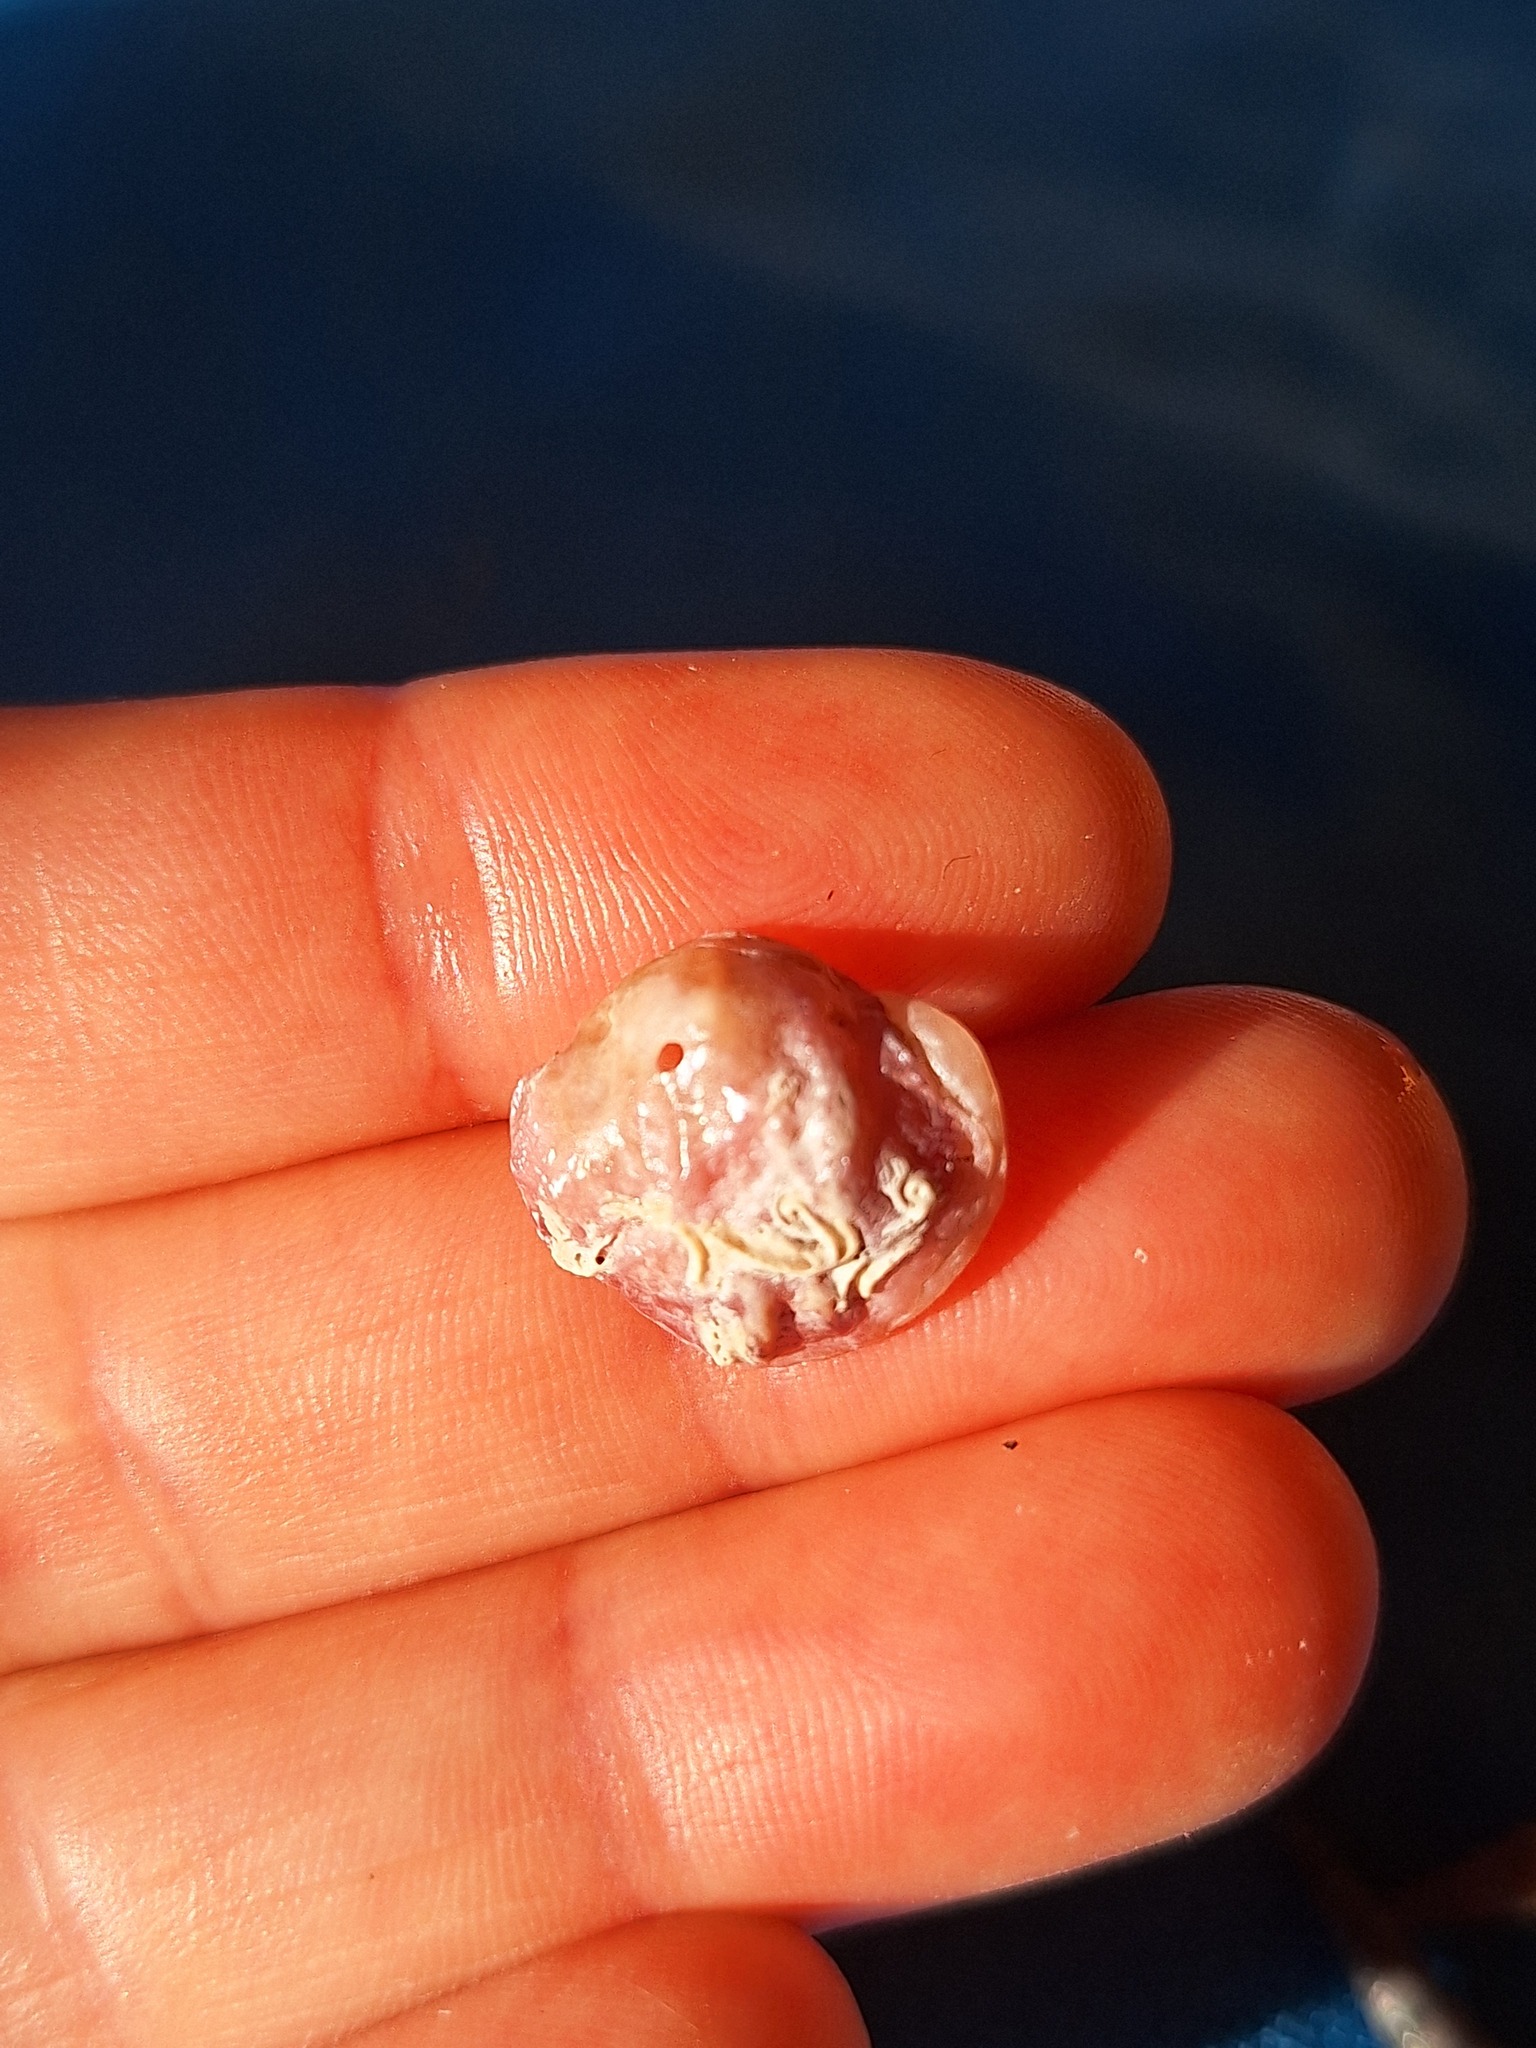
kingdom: Animalia
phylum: Mollusca
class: Bivalvia
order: Pectinida
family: Anomiidae
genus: Anomia
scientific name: Anomia ephippium
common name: Saddle oyster
